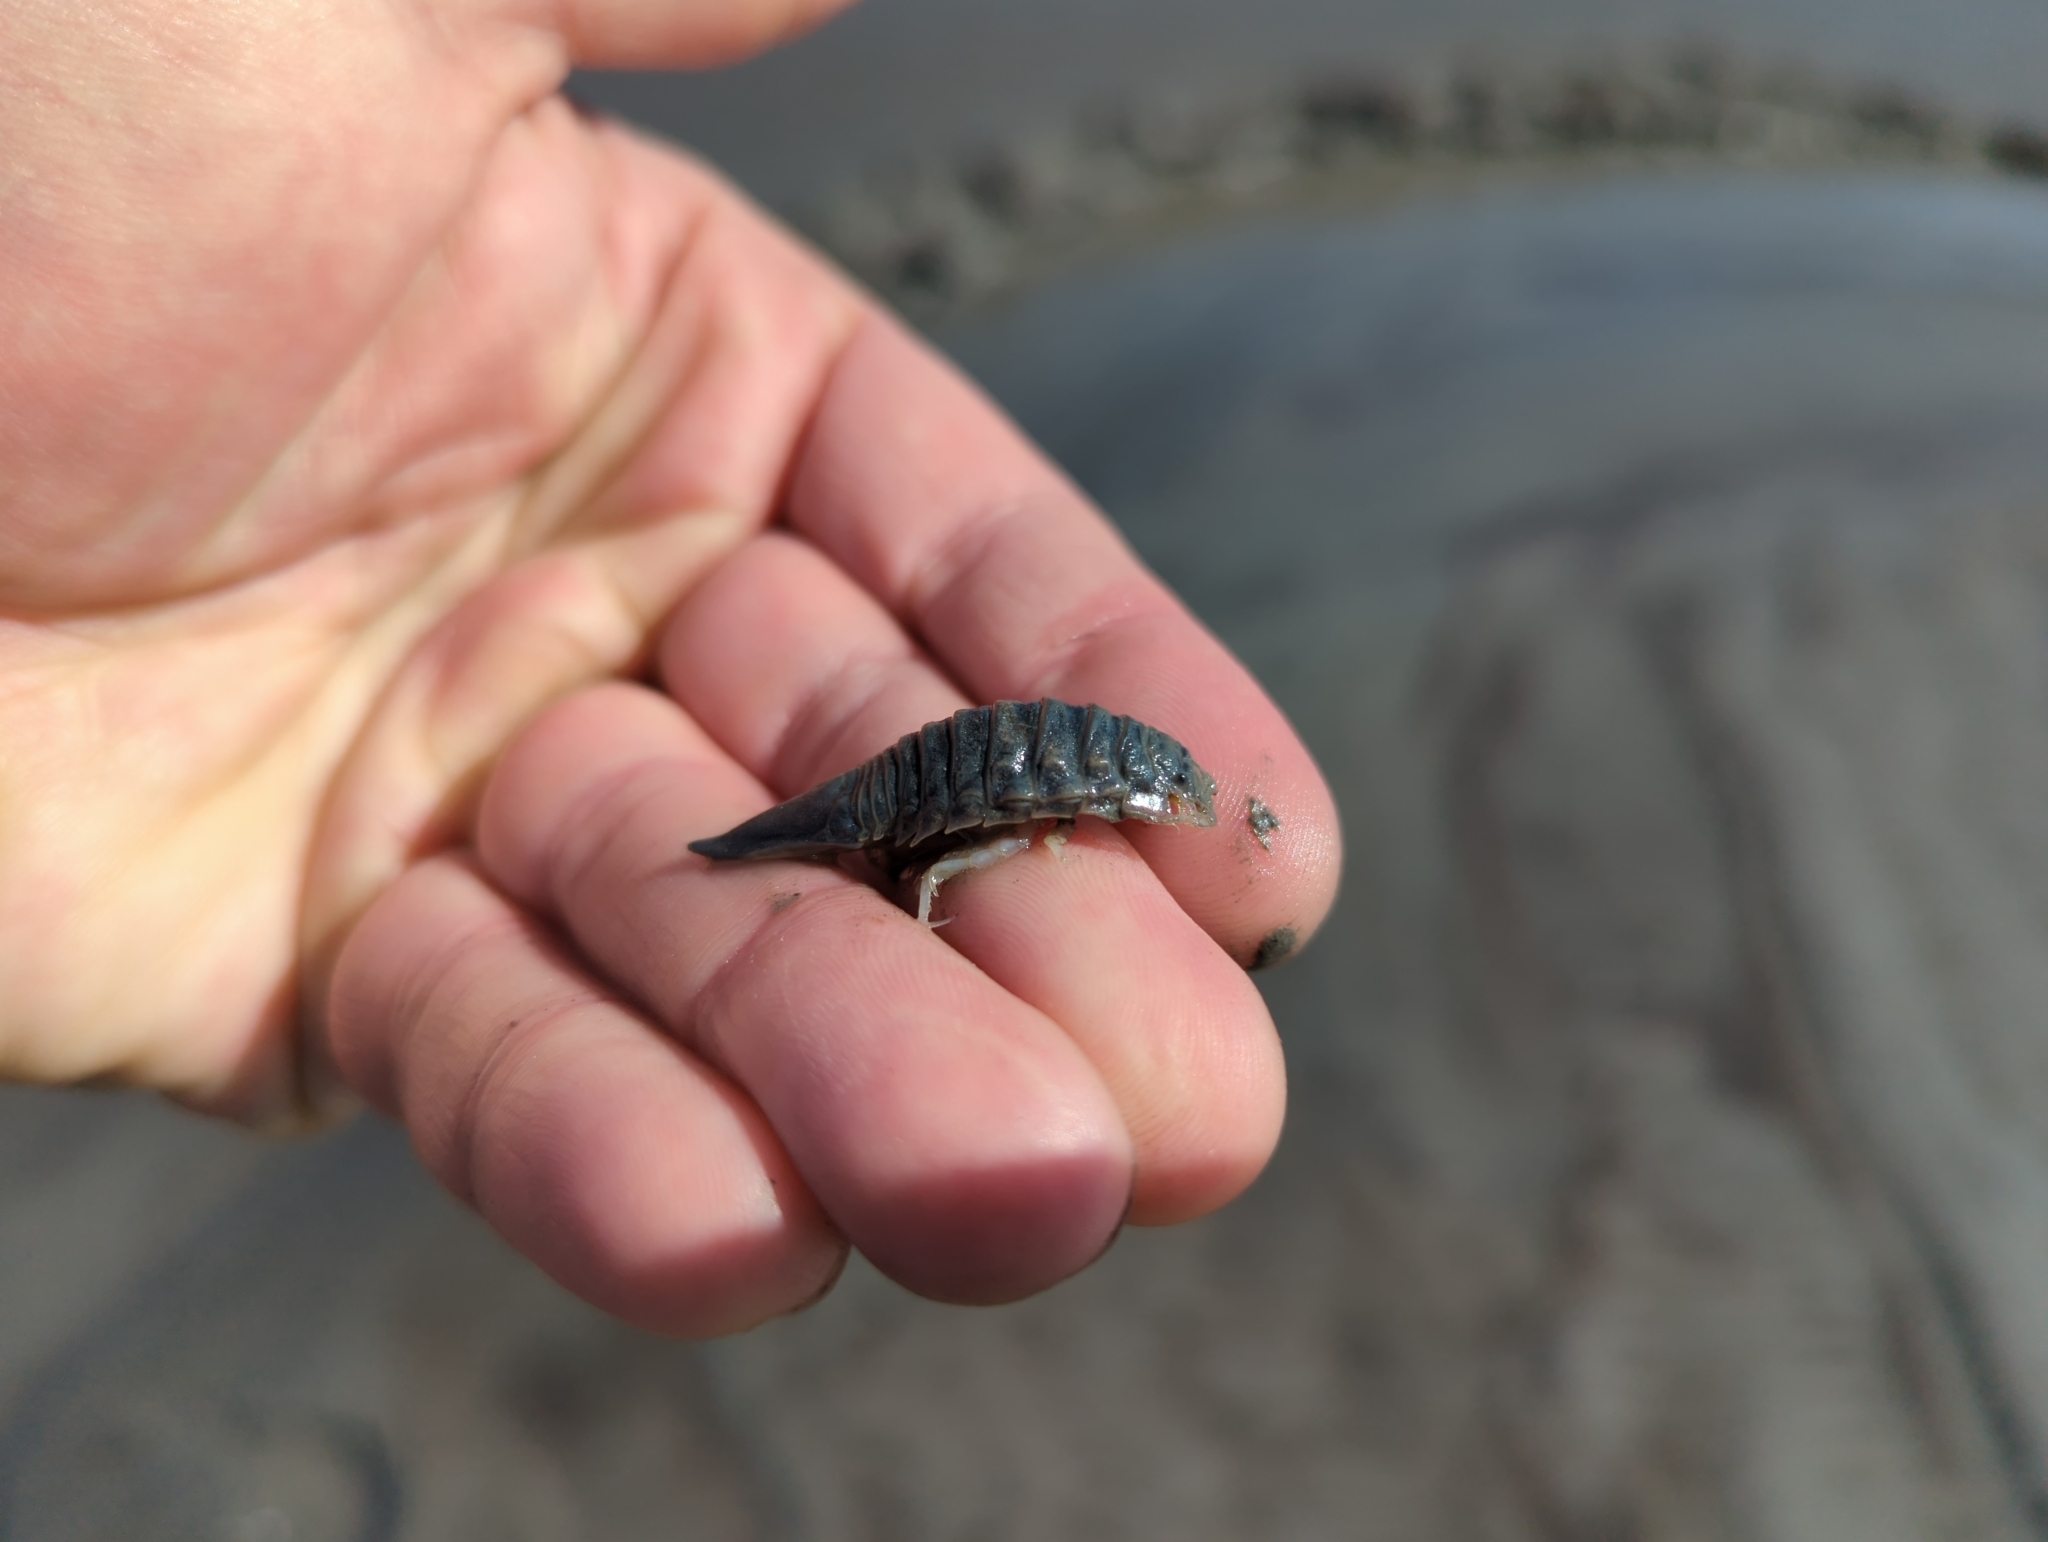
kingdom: Animalia
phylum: Arthropoda
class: Malacostraca
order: Isopoda
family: Chaetiliidae
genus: Saduria
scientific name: Saduria entomon
